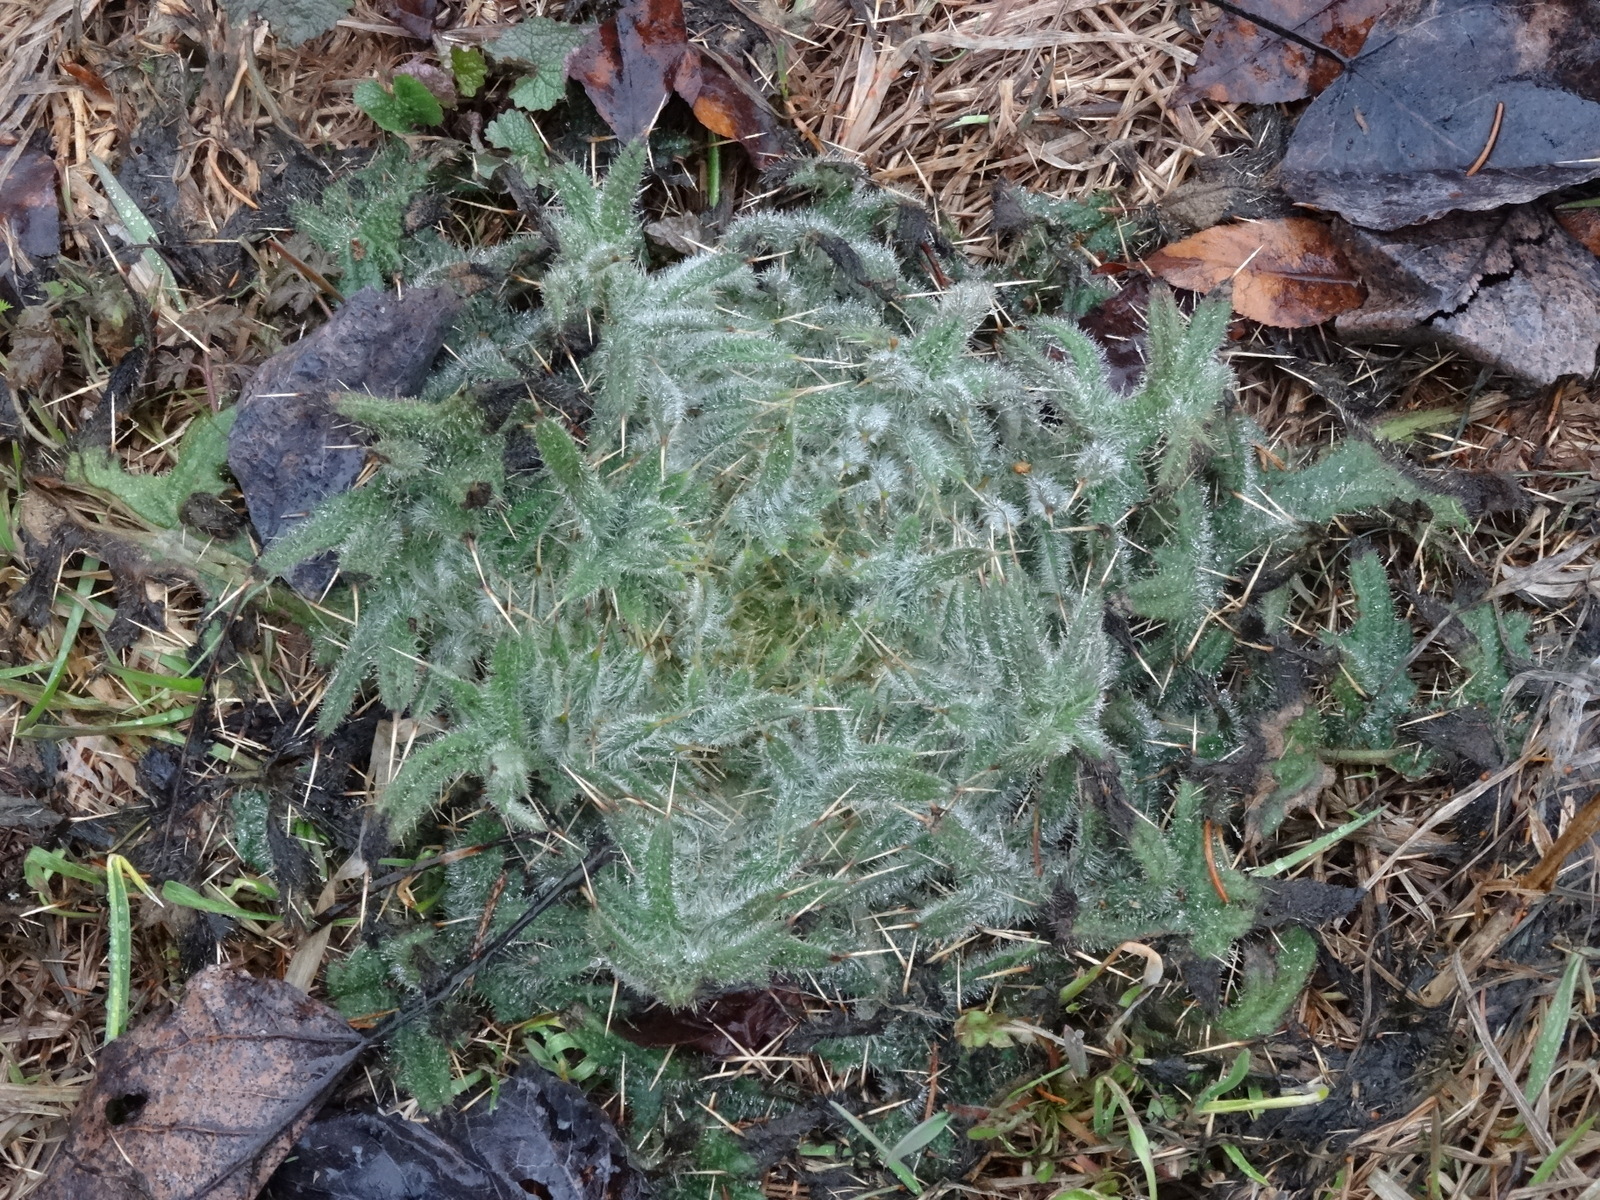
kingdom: Plantae
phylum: Tracheophyta
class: Magnoliopsida
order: Asterales
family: Asteraceae
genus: Cirsium
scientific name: Cirsium vulgare
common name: Bull thistle
